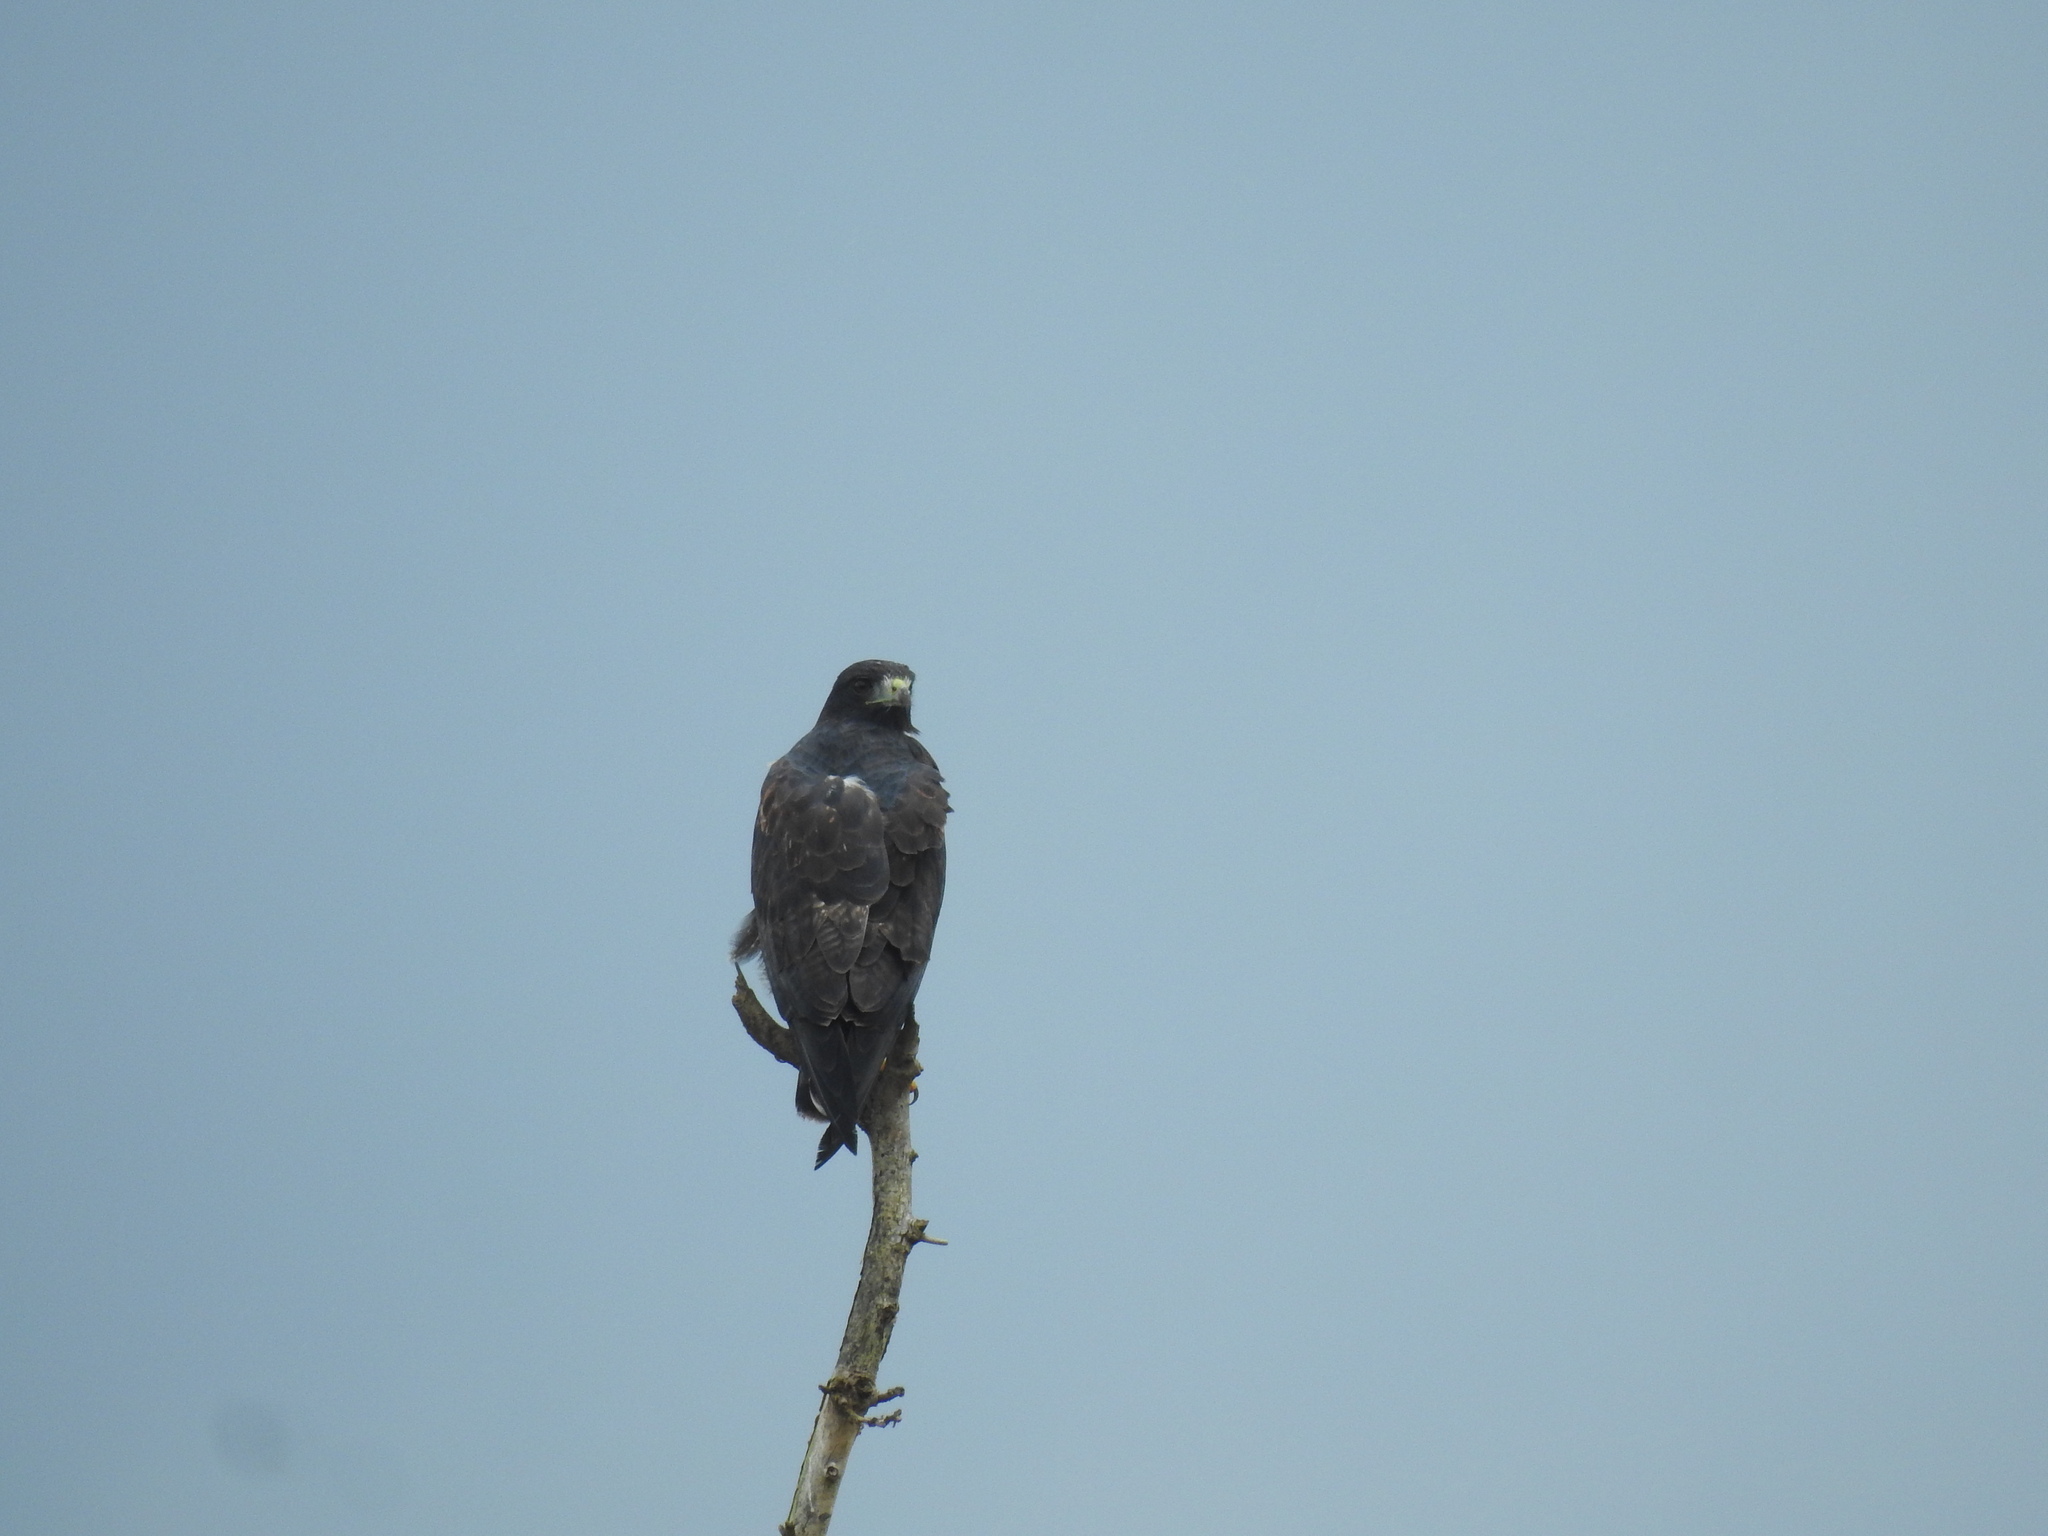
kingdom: Animalia
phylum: Chordata
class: Aves
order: Accipitriformes
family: Accipitridae
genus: Buteo
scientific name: Buteo albicaudatus
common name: White-tailed hawk
